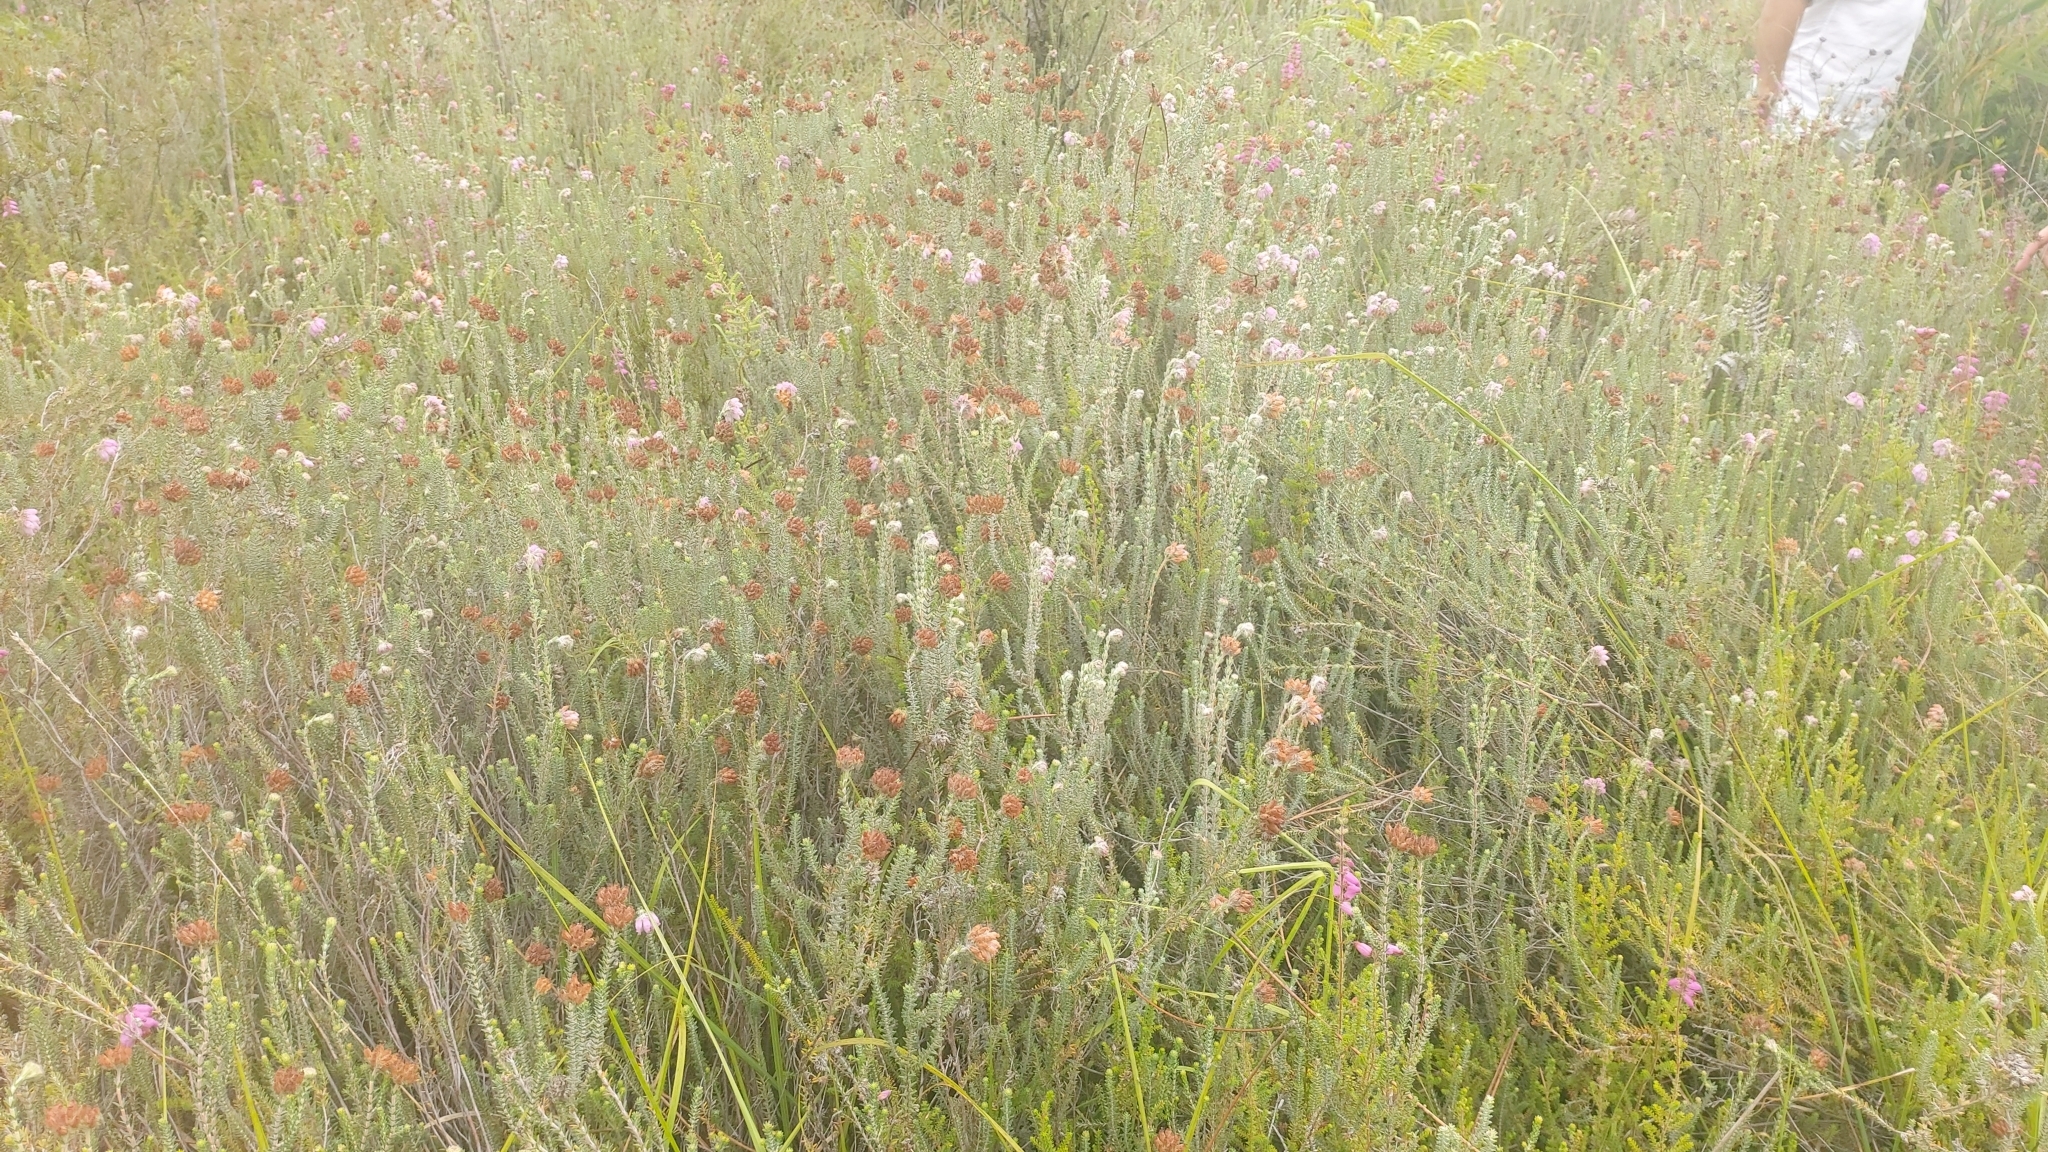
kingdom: Plantae
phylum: Tracheophyta
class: Magnoliopsida
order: Ericales
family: Ericaceae
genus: Erica
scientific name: Erica tetralix
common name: Cross-leaved heath
